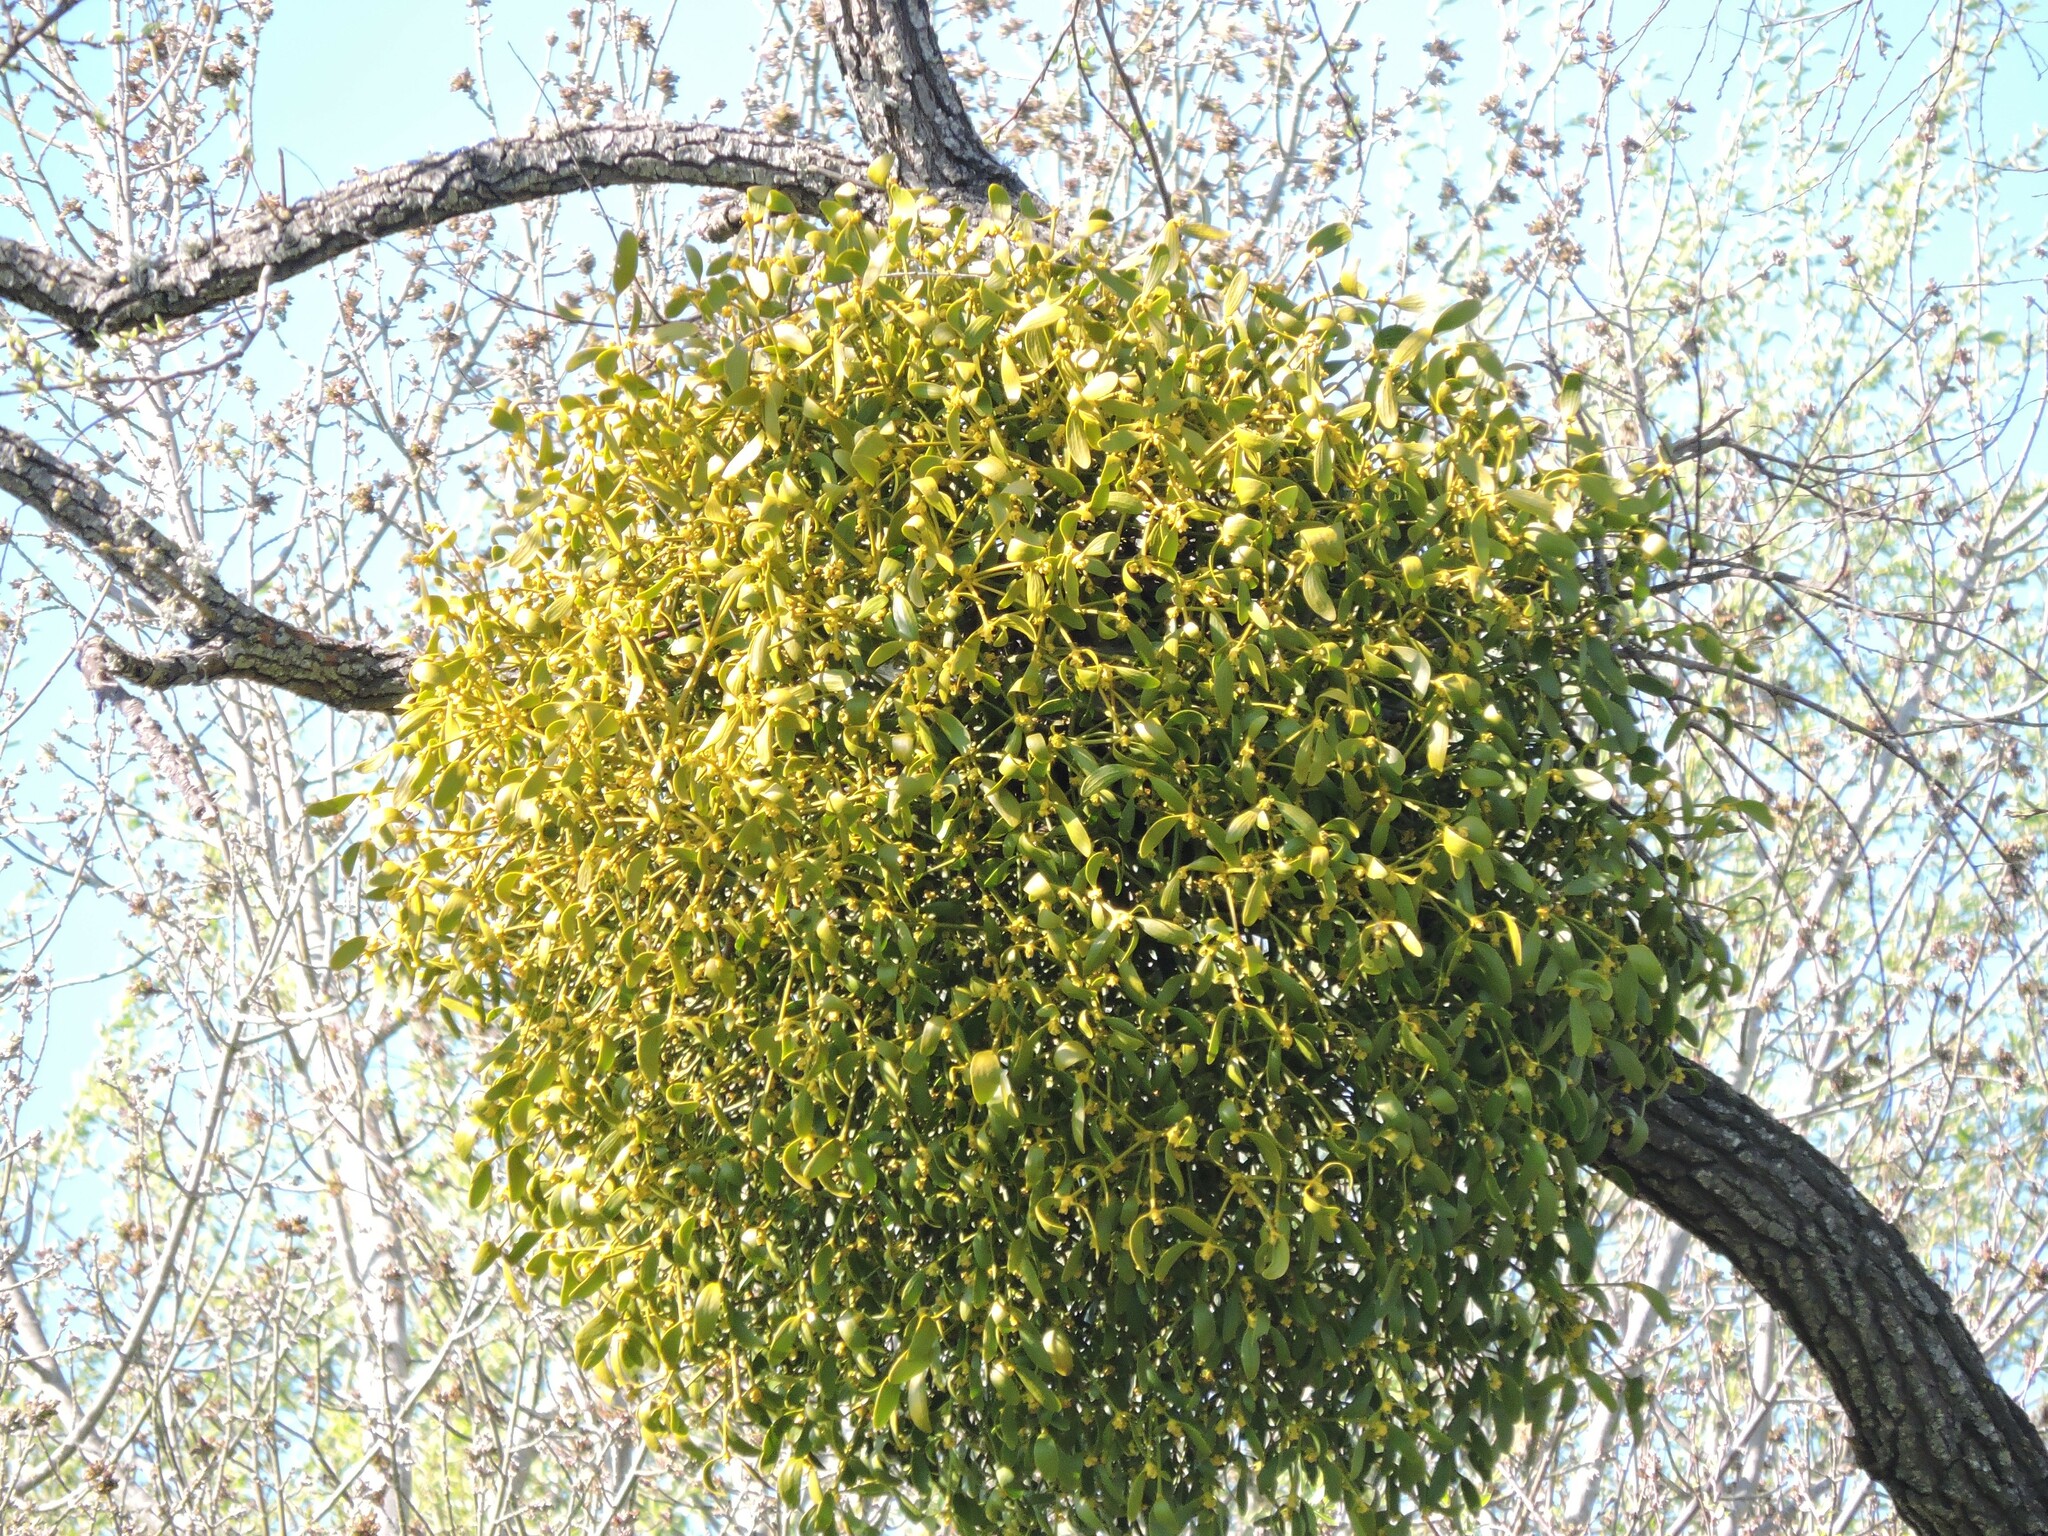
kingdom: Plantae
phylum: Tracheophyta
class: Magnoliopsida
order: Santalales
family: Viscaceae
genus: Viscum
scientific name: Viscum album
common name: Mistletoe
